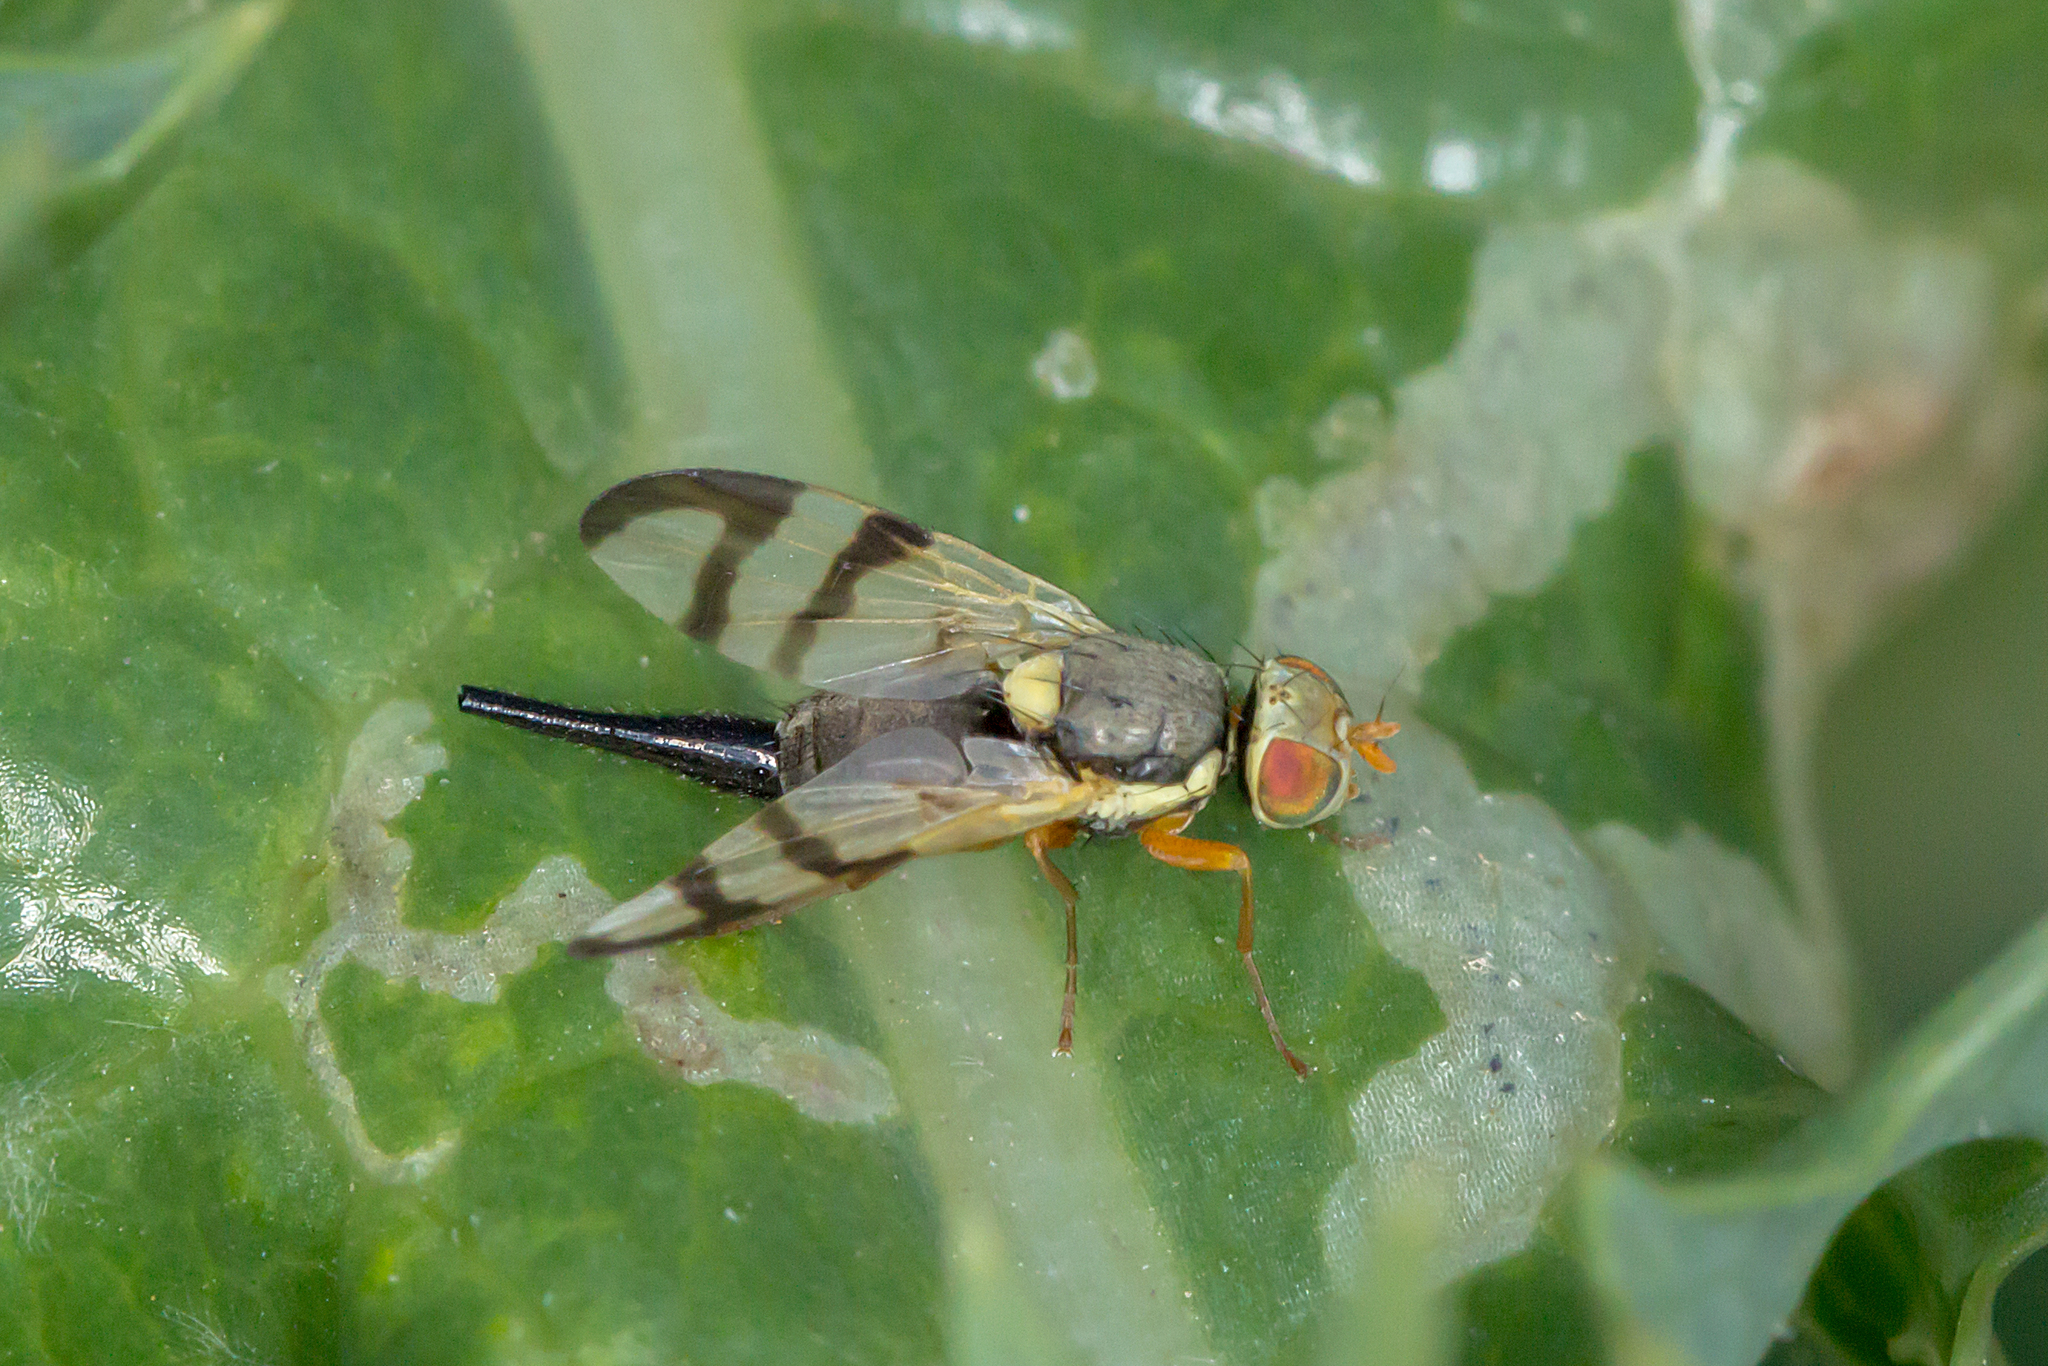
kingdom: Animalia
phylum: Arthropoda
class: Insecta
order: Diptera
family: Tephritidae
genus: Urophora
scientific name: Urophora stylata
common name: Fruit fly
